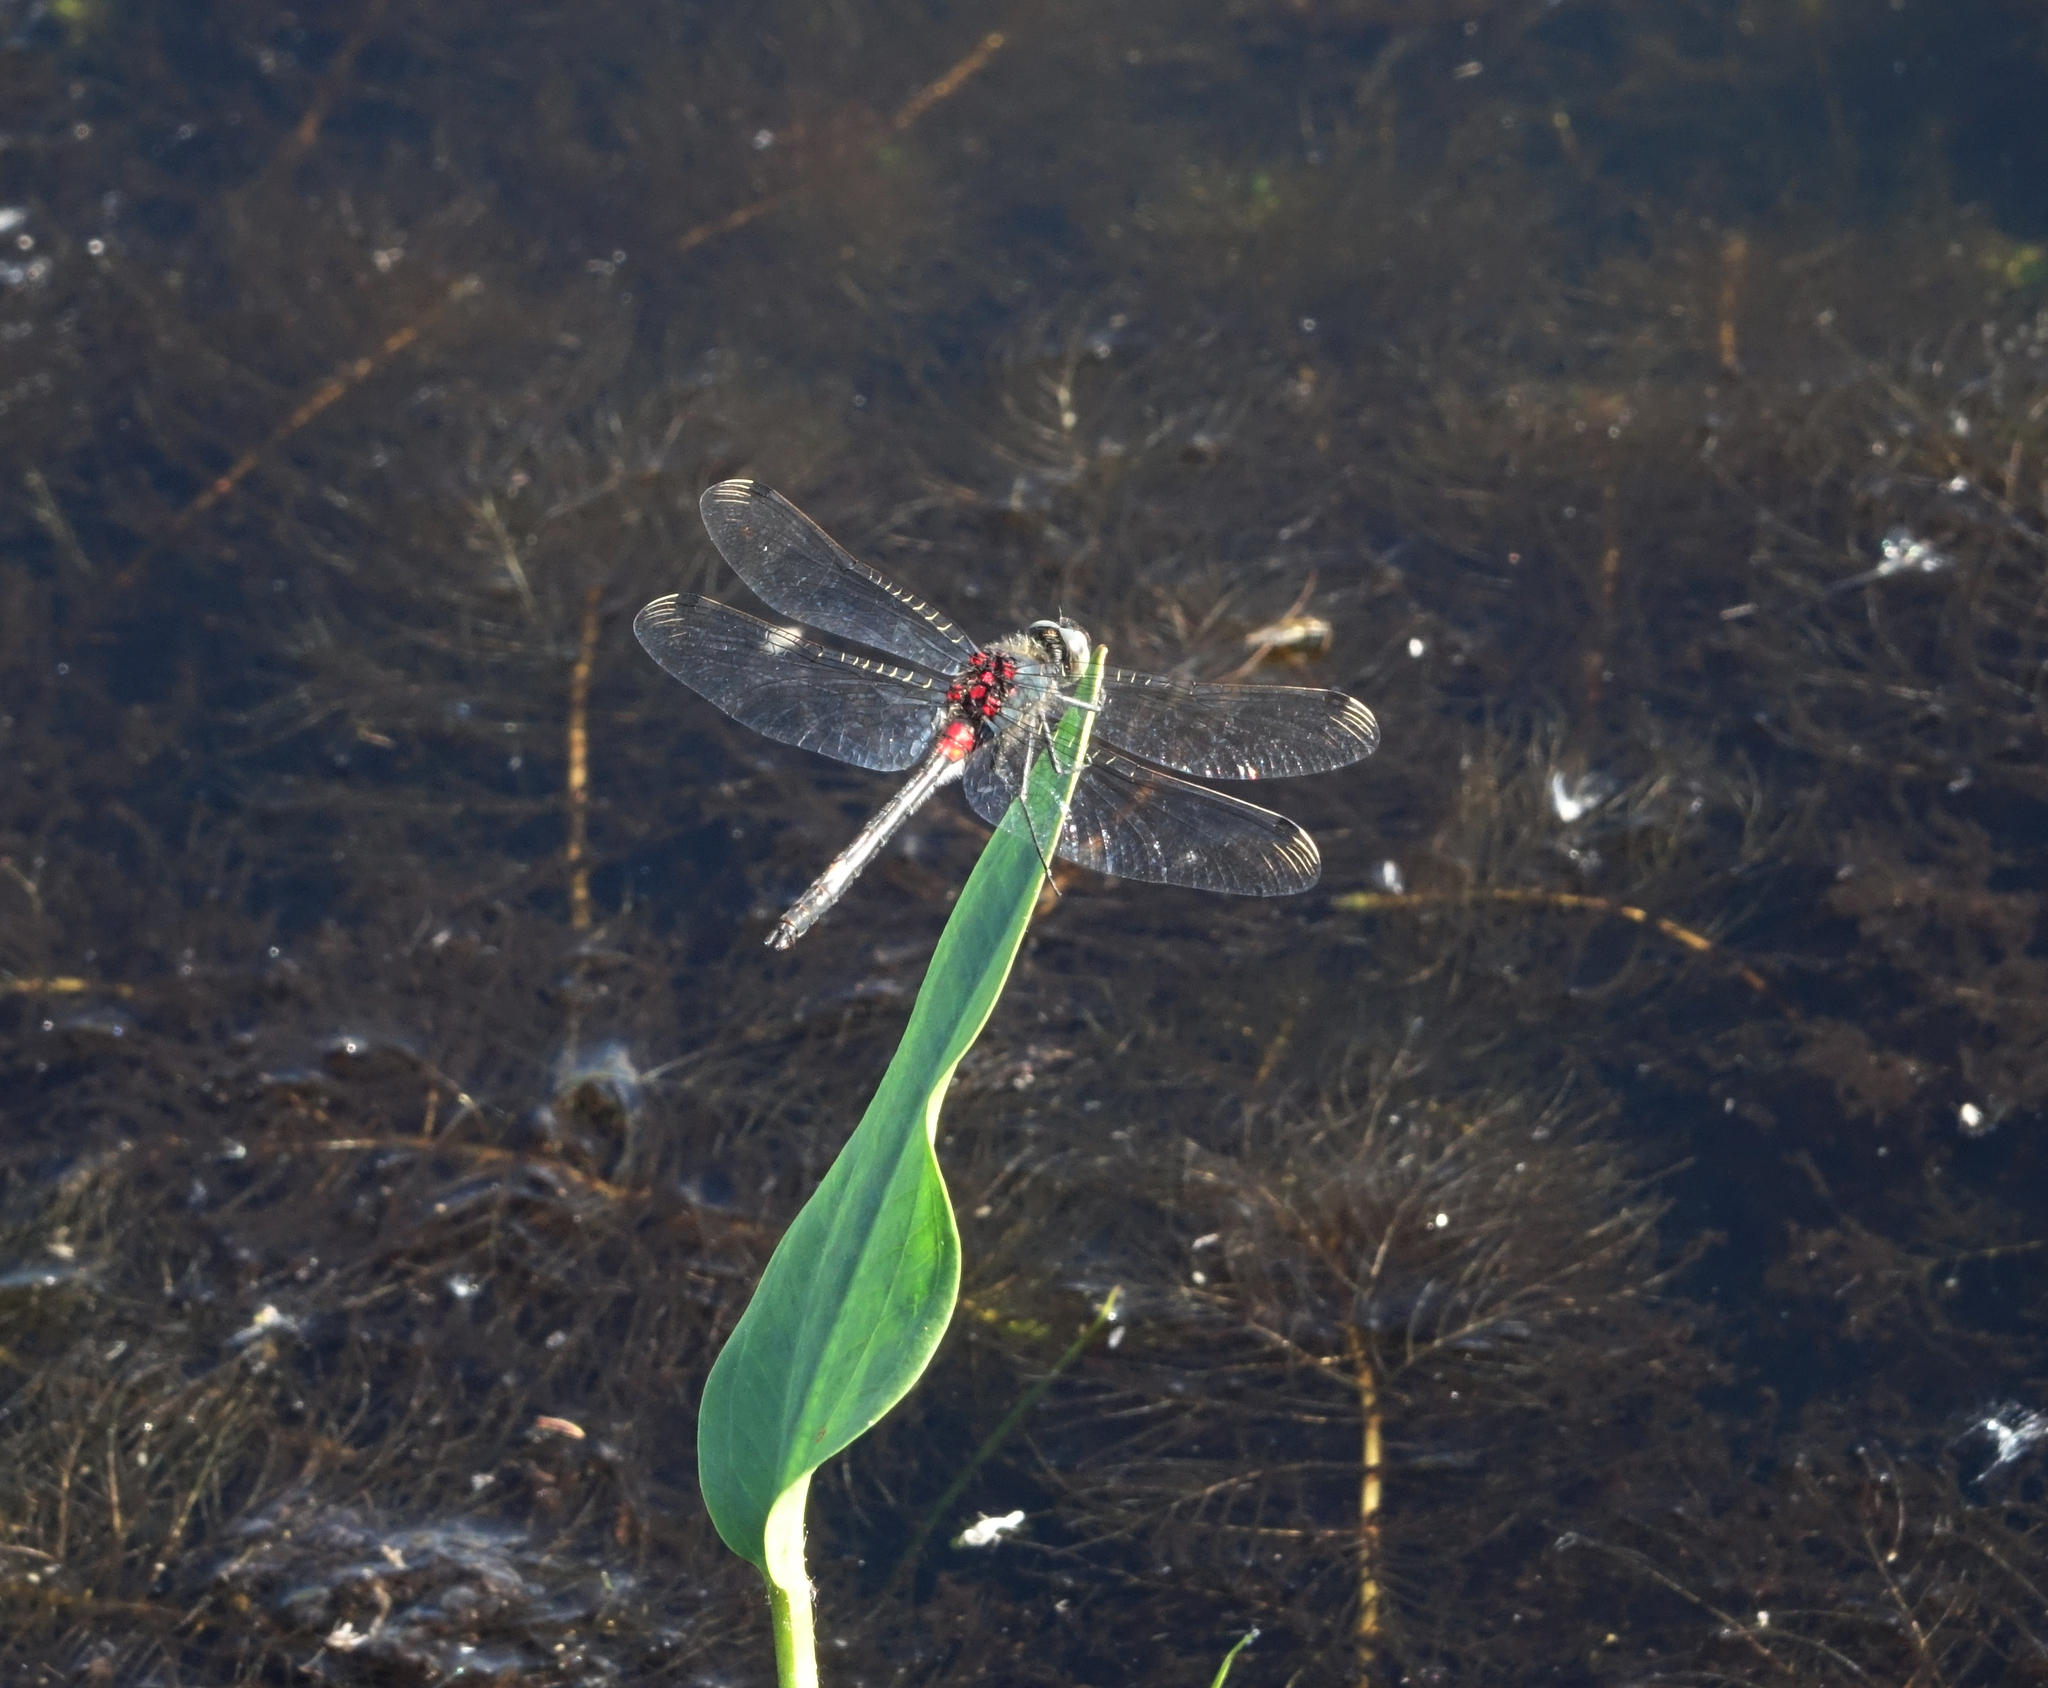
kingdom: Animalia
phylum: Arthropoda
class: Insecta
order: Odonata
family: Libellulidae
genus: Leucorrhinia
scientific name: Leucorrhinia orientalis
